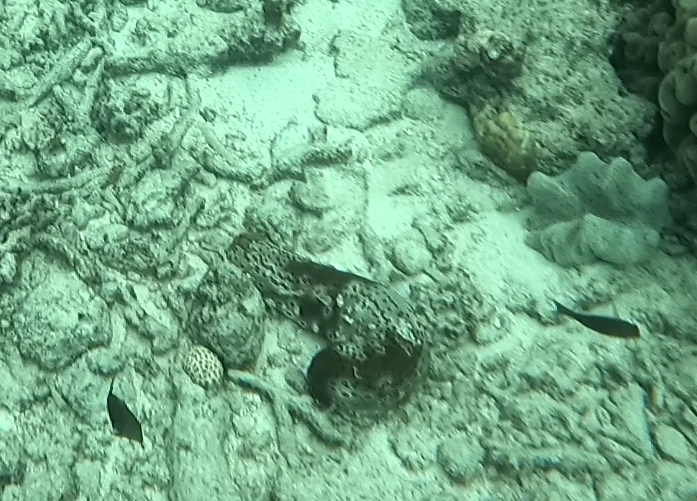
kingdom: Animalia
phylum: Echinodermata
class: Holothuroidea
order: Holothuriida
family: Holothuriidae
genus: Bohadschia
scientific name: Bohadschia argus
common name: Leopardfish
